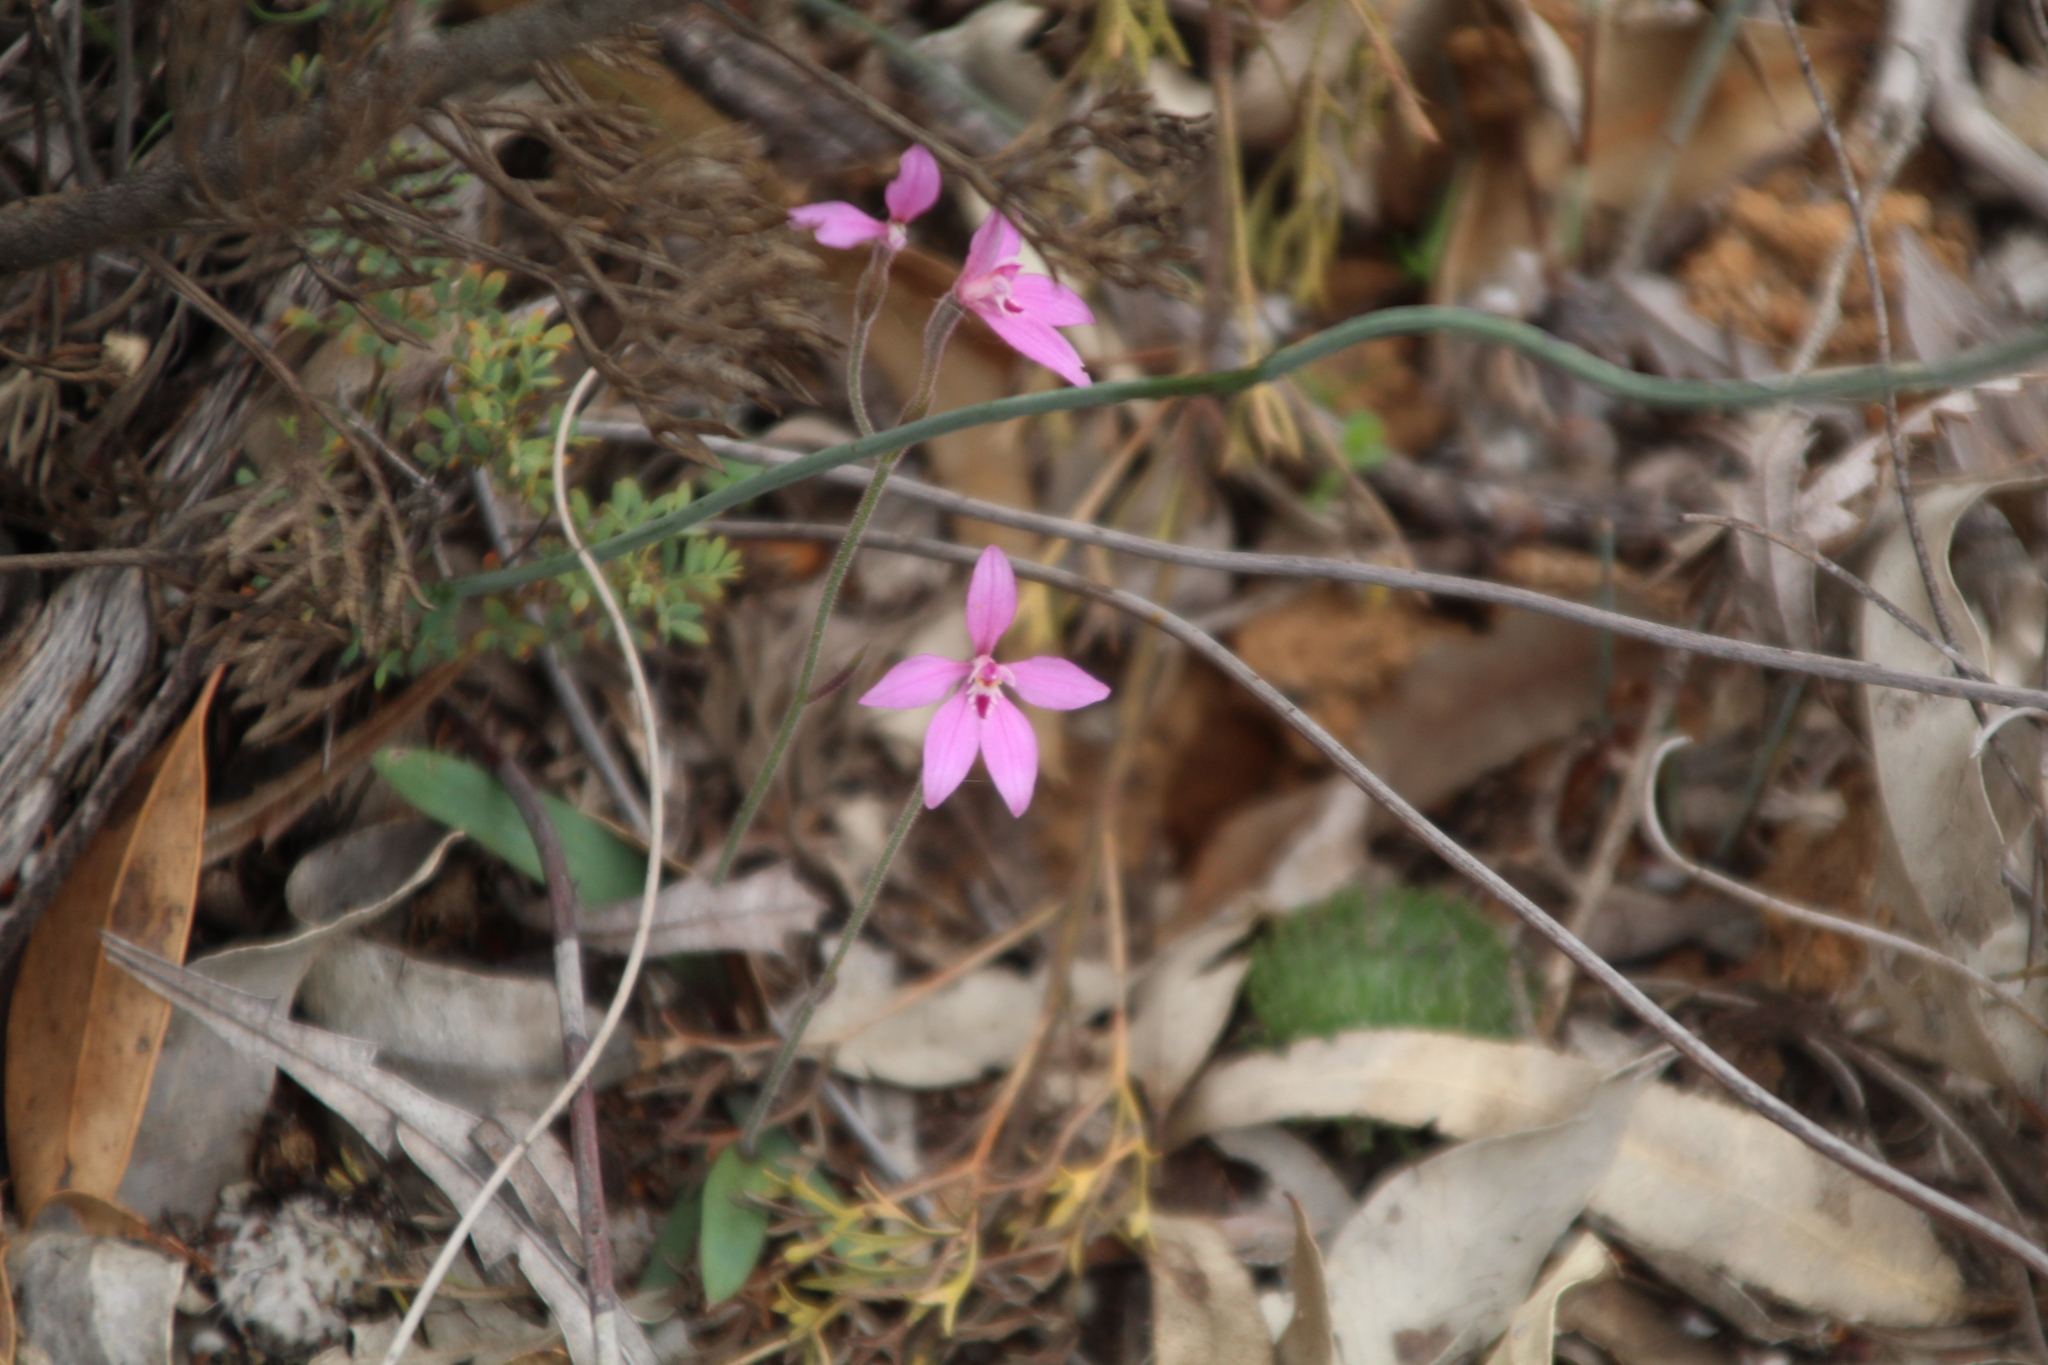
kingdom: Plantae
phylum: Tracheophyta
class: Liliopsida
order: Asparagales
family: Orchidaceae
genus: Caladenia
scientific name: Caladenia reptans
